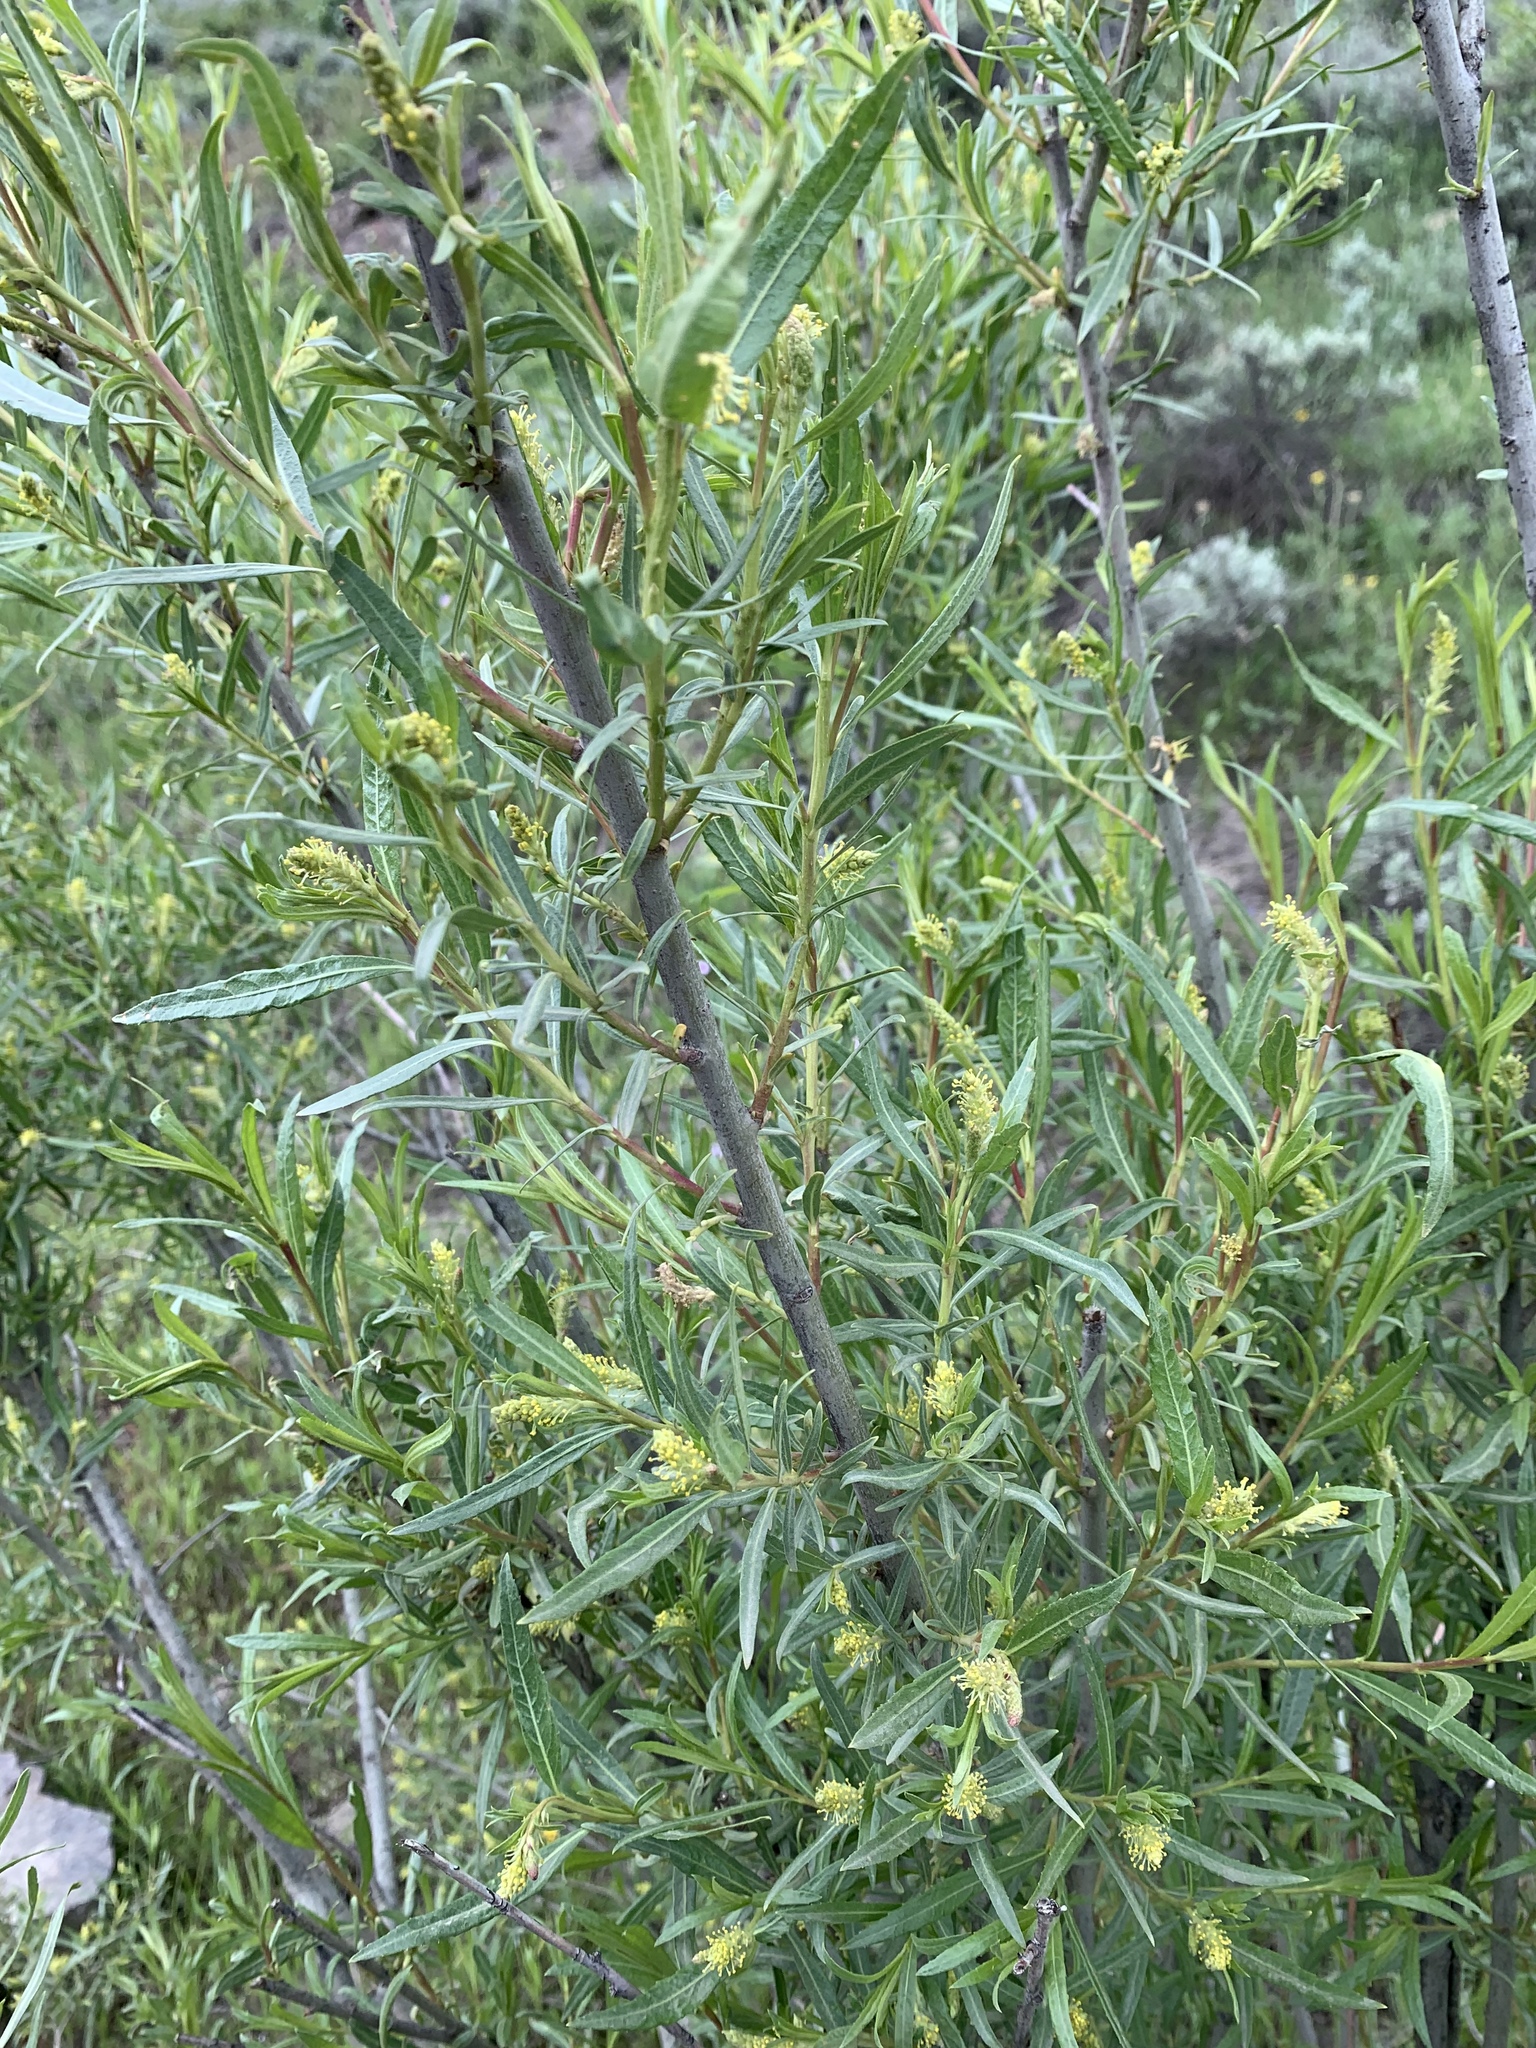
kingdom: Plantae
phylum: Tracheophyta
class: Magnoliopsida
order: Malpighiales
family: Salicaceae
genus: Salix
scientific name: Salix exigua
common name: Coyote willow
